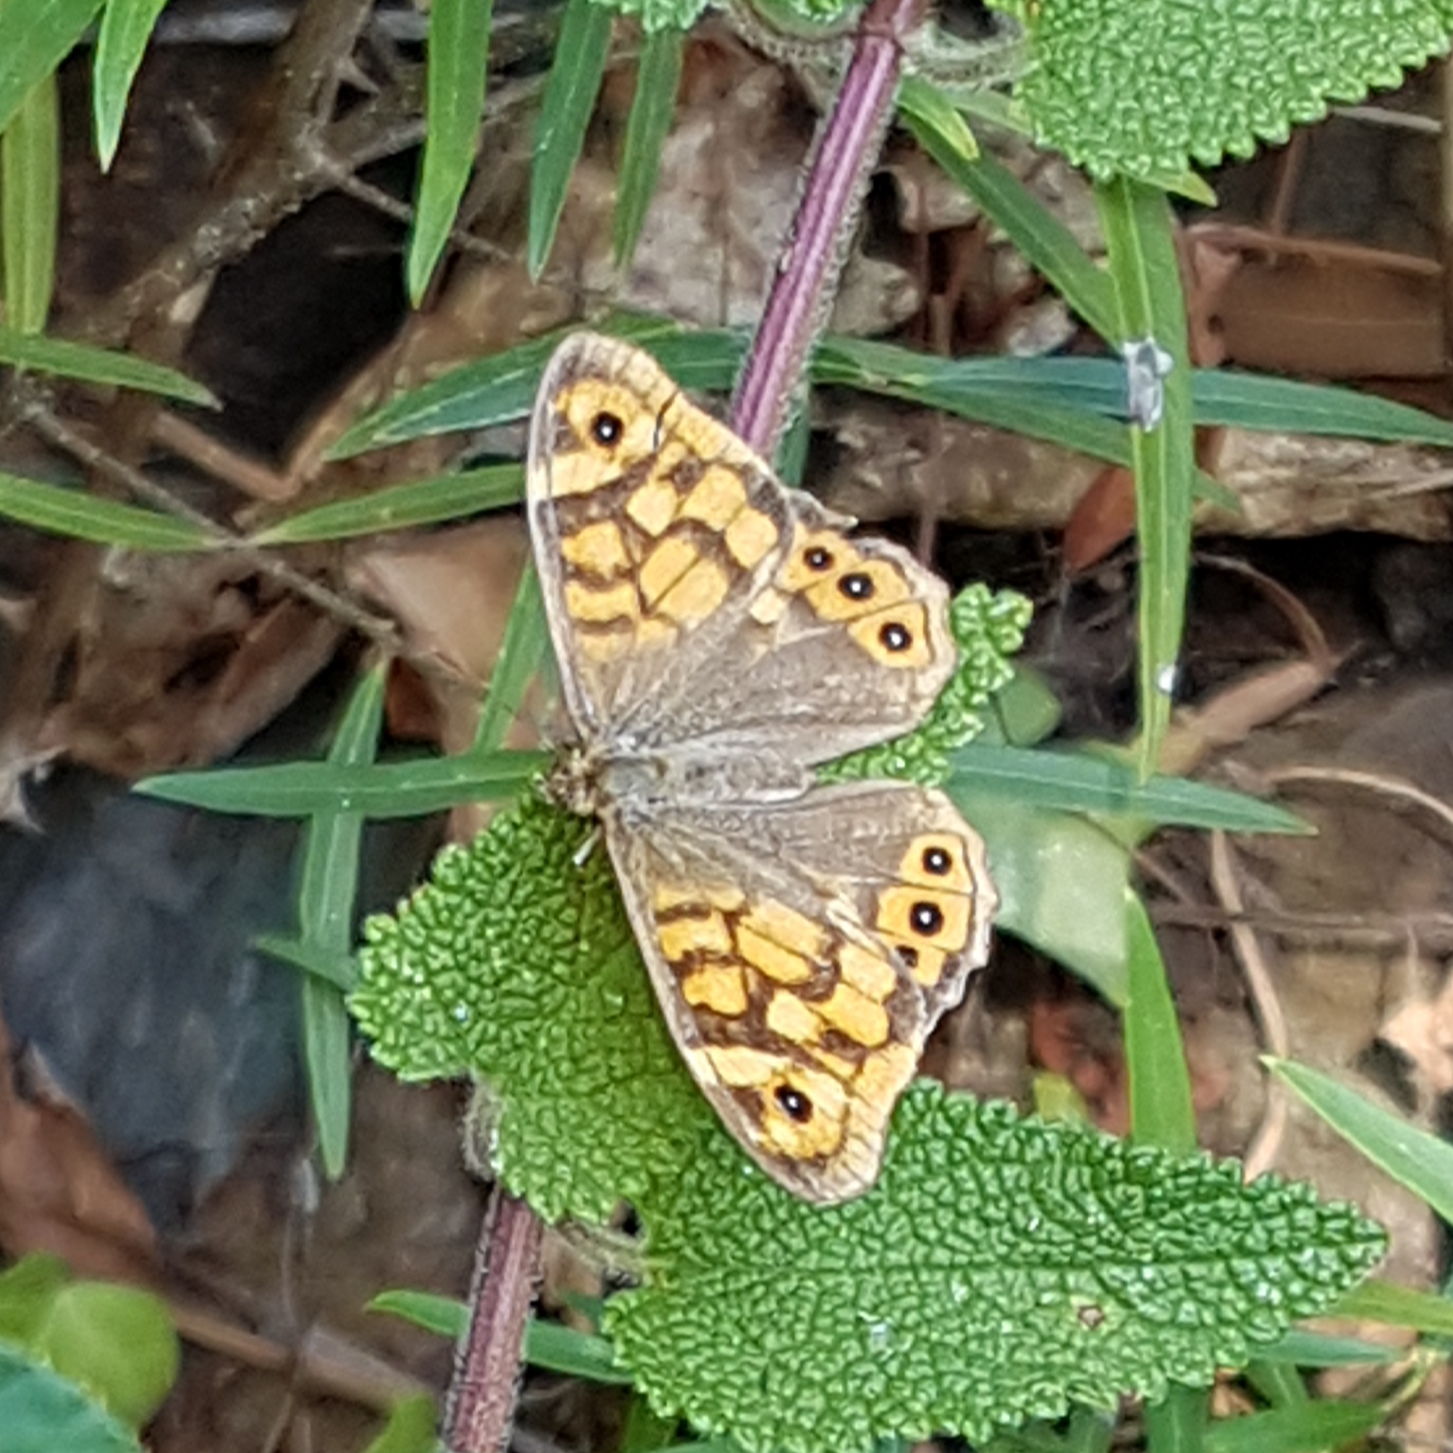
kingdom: Animalia
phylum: Arthropoda
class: Insecta
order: Lepidoptera
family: Nymphalidae
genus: Pararge
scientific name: Pararge aegeria
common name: Speckled wood
